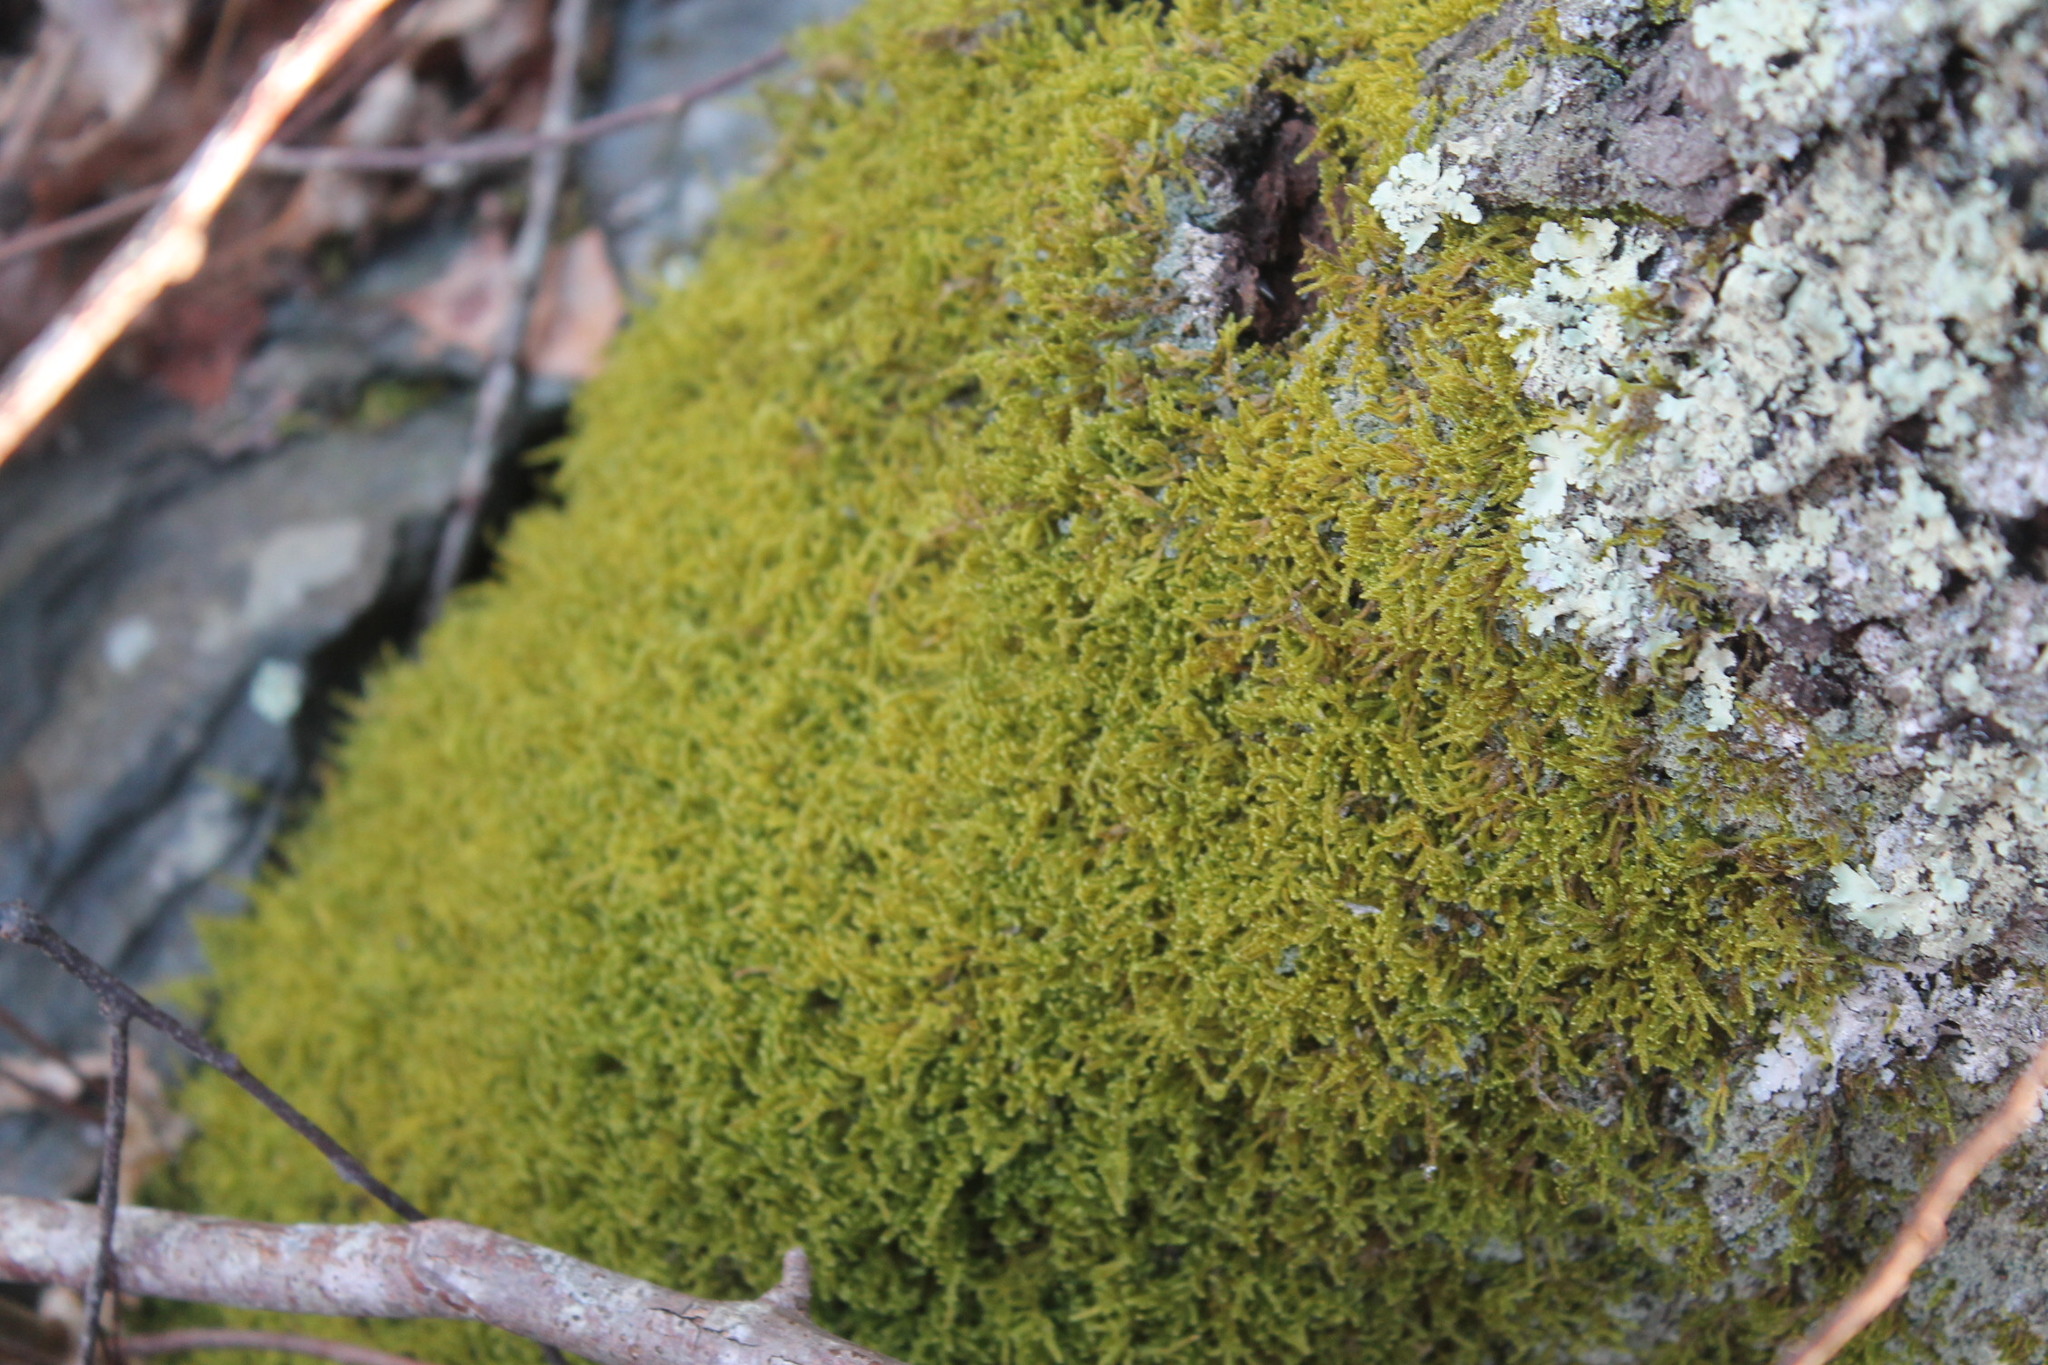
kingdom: Plantae
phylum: Bryophyta
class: Bryopsida
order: Hypnales
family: Callicladiaceae
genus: Callicladium
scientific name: Callicladium imponens
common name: Brocade moss
